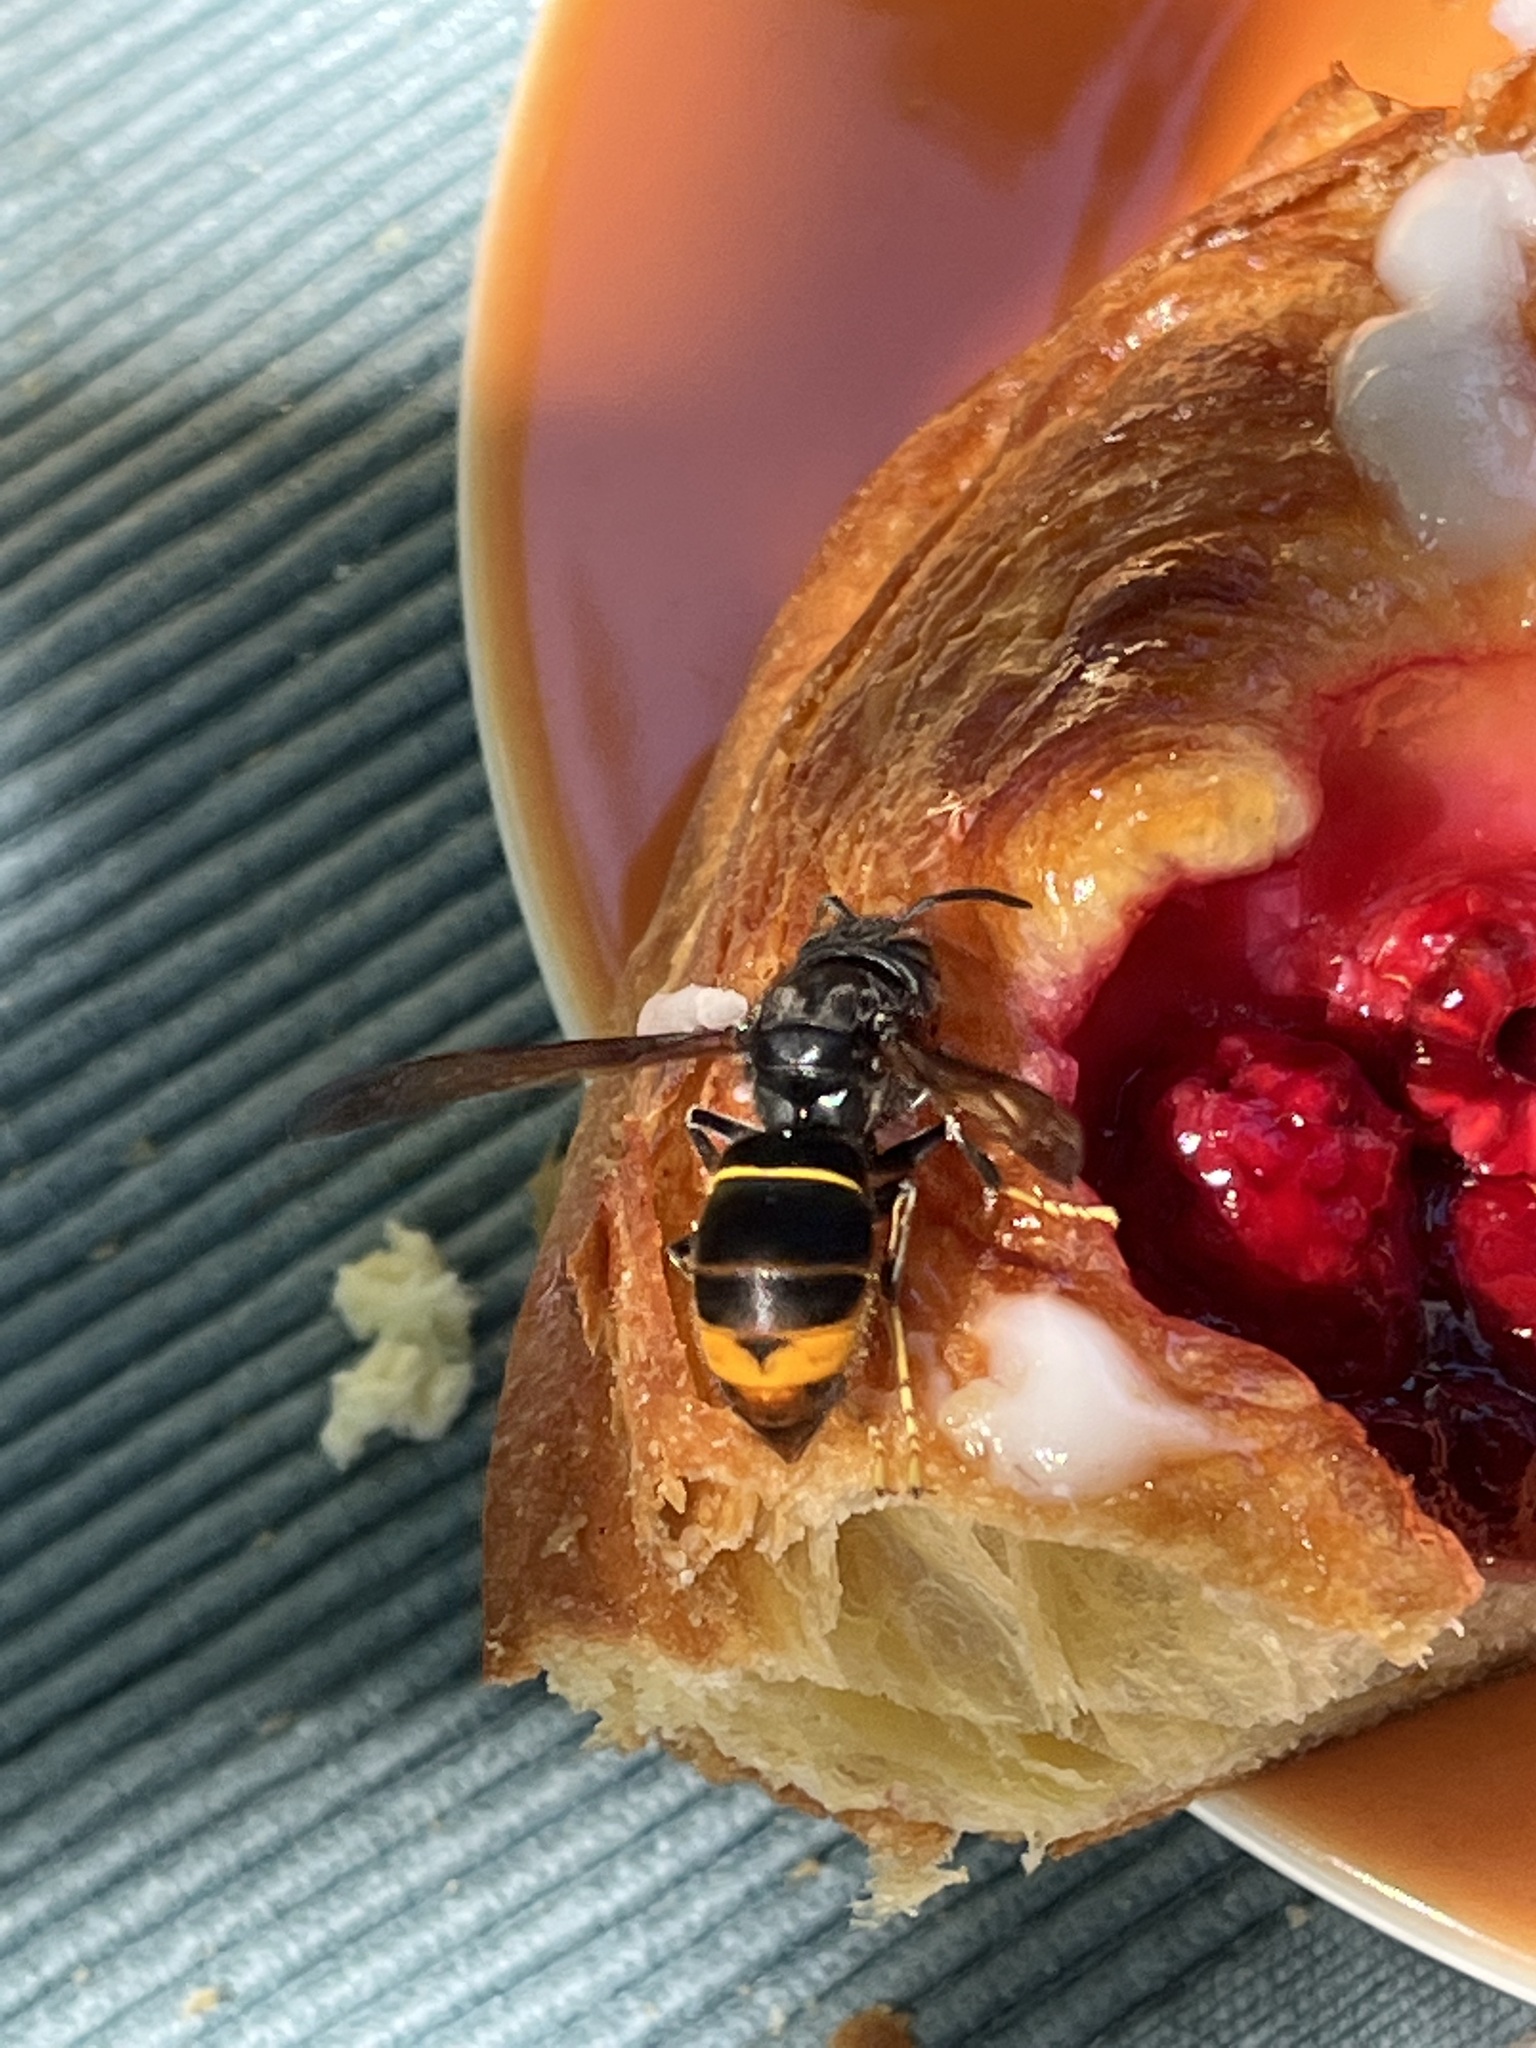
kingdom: Animalia
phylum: Arthropoda
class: Insecta
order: Hymenoptera
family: Vespidae
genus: Vespa
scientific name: Vespa velutina
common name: Asian hornet
